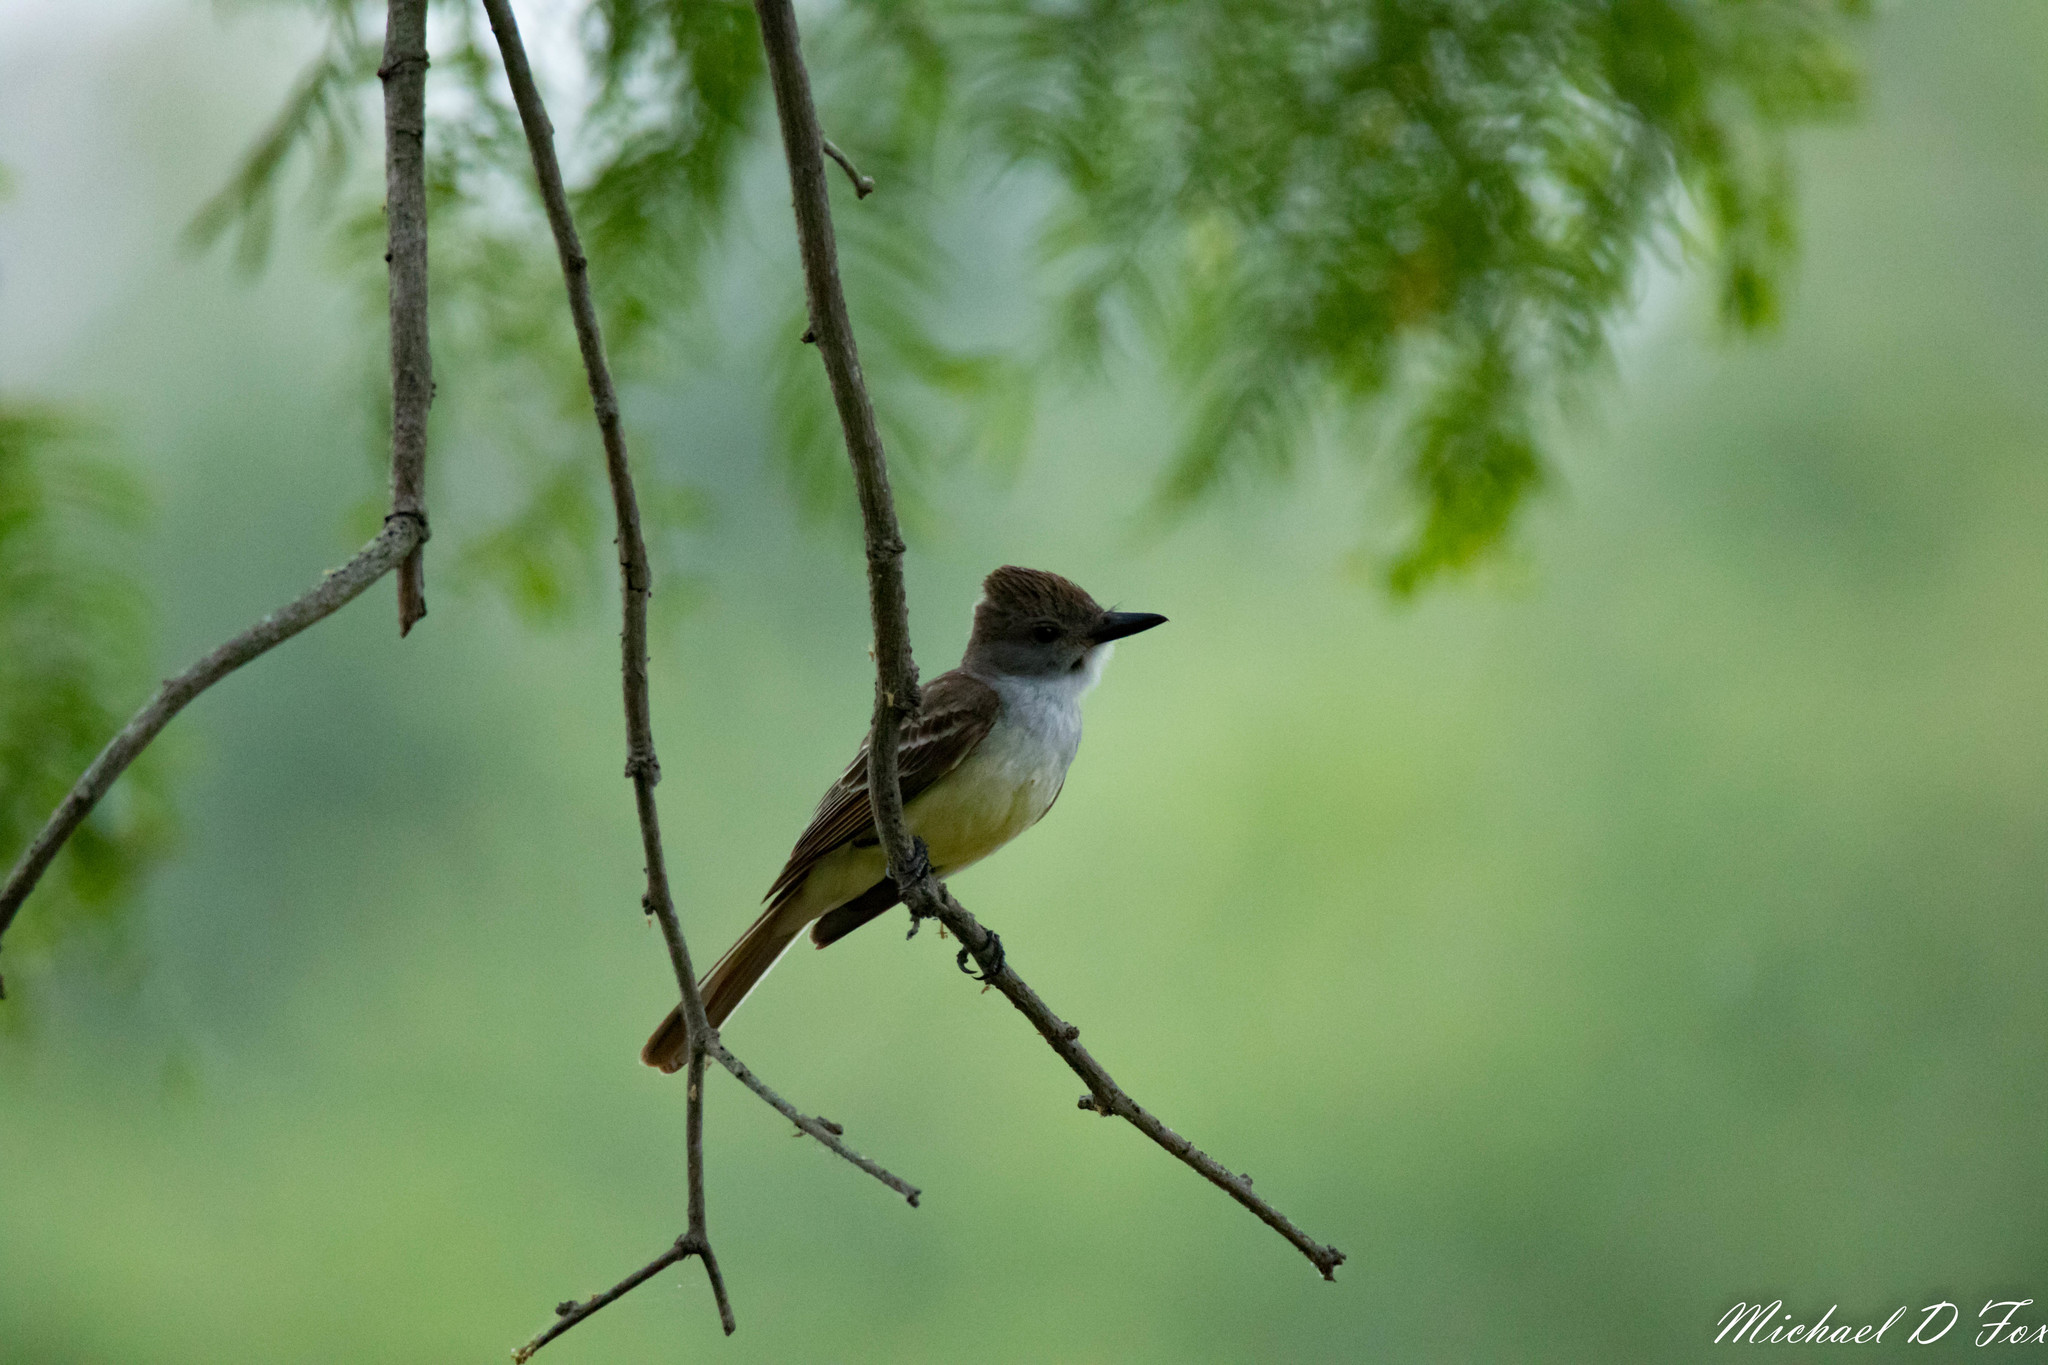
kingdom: Animalia
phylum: Chordata
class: Aves
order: Passeriformes
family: Tyrannidae
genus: Myiarchus
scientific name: Myiarchus tyrannulus
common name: Brown-crested flycatcher
